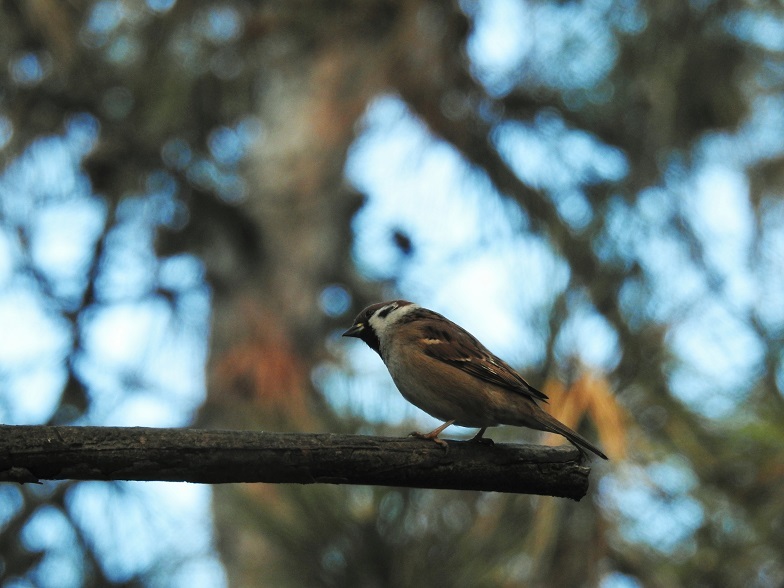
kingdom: Animalia
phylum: Chordata
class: Aves
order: Passeriformes
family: Passeridae
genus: Passer
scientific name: Passer montanus
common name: Eurasian tree sparrow
